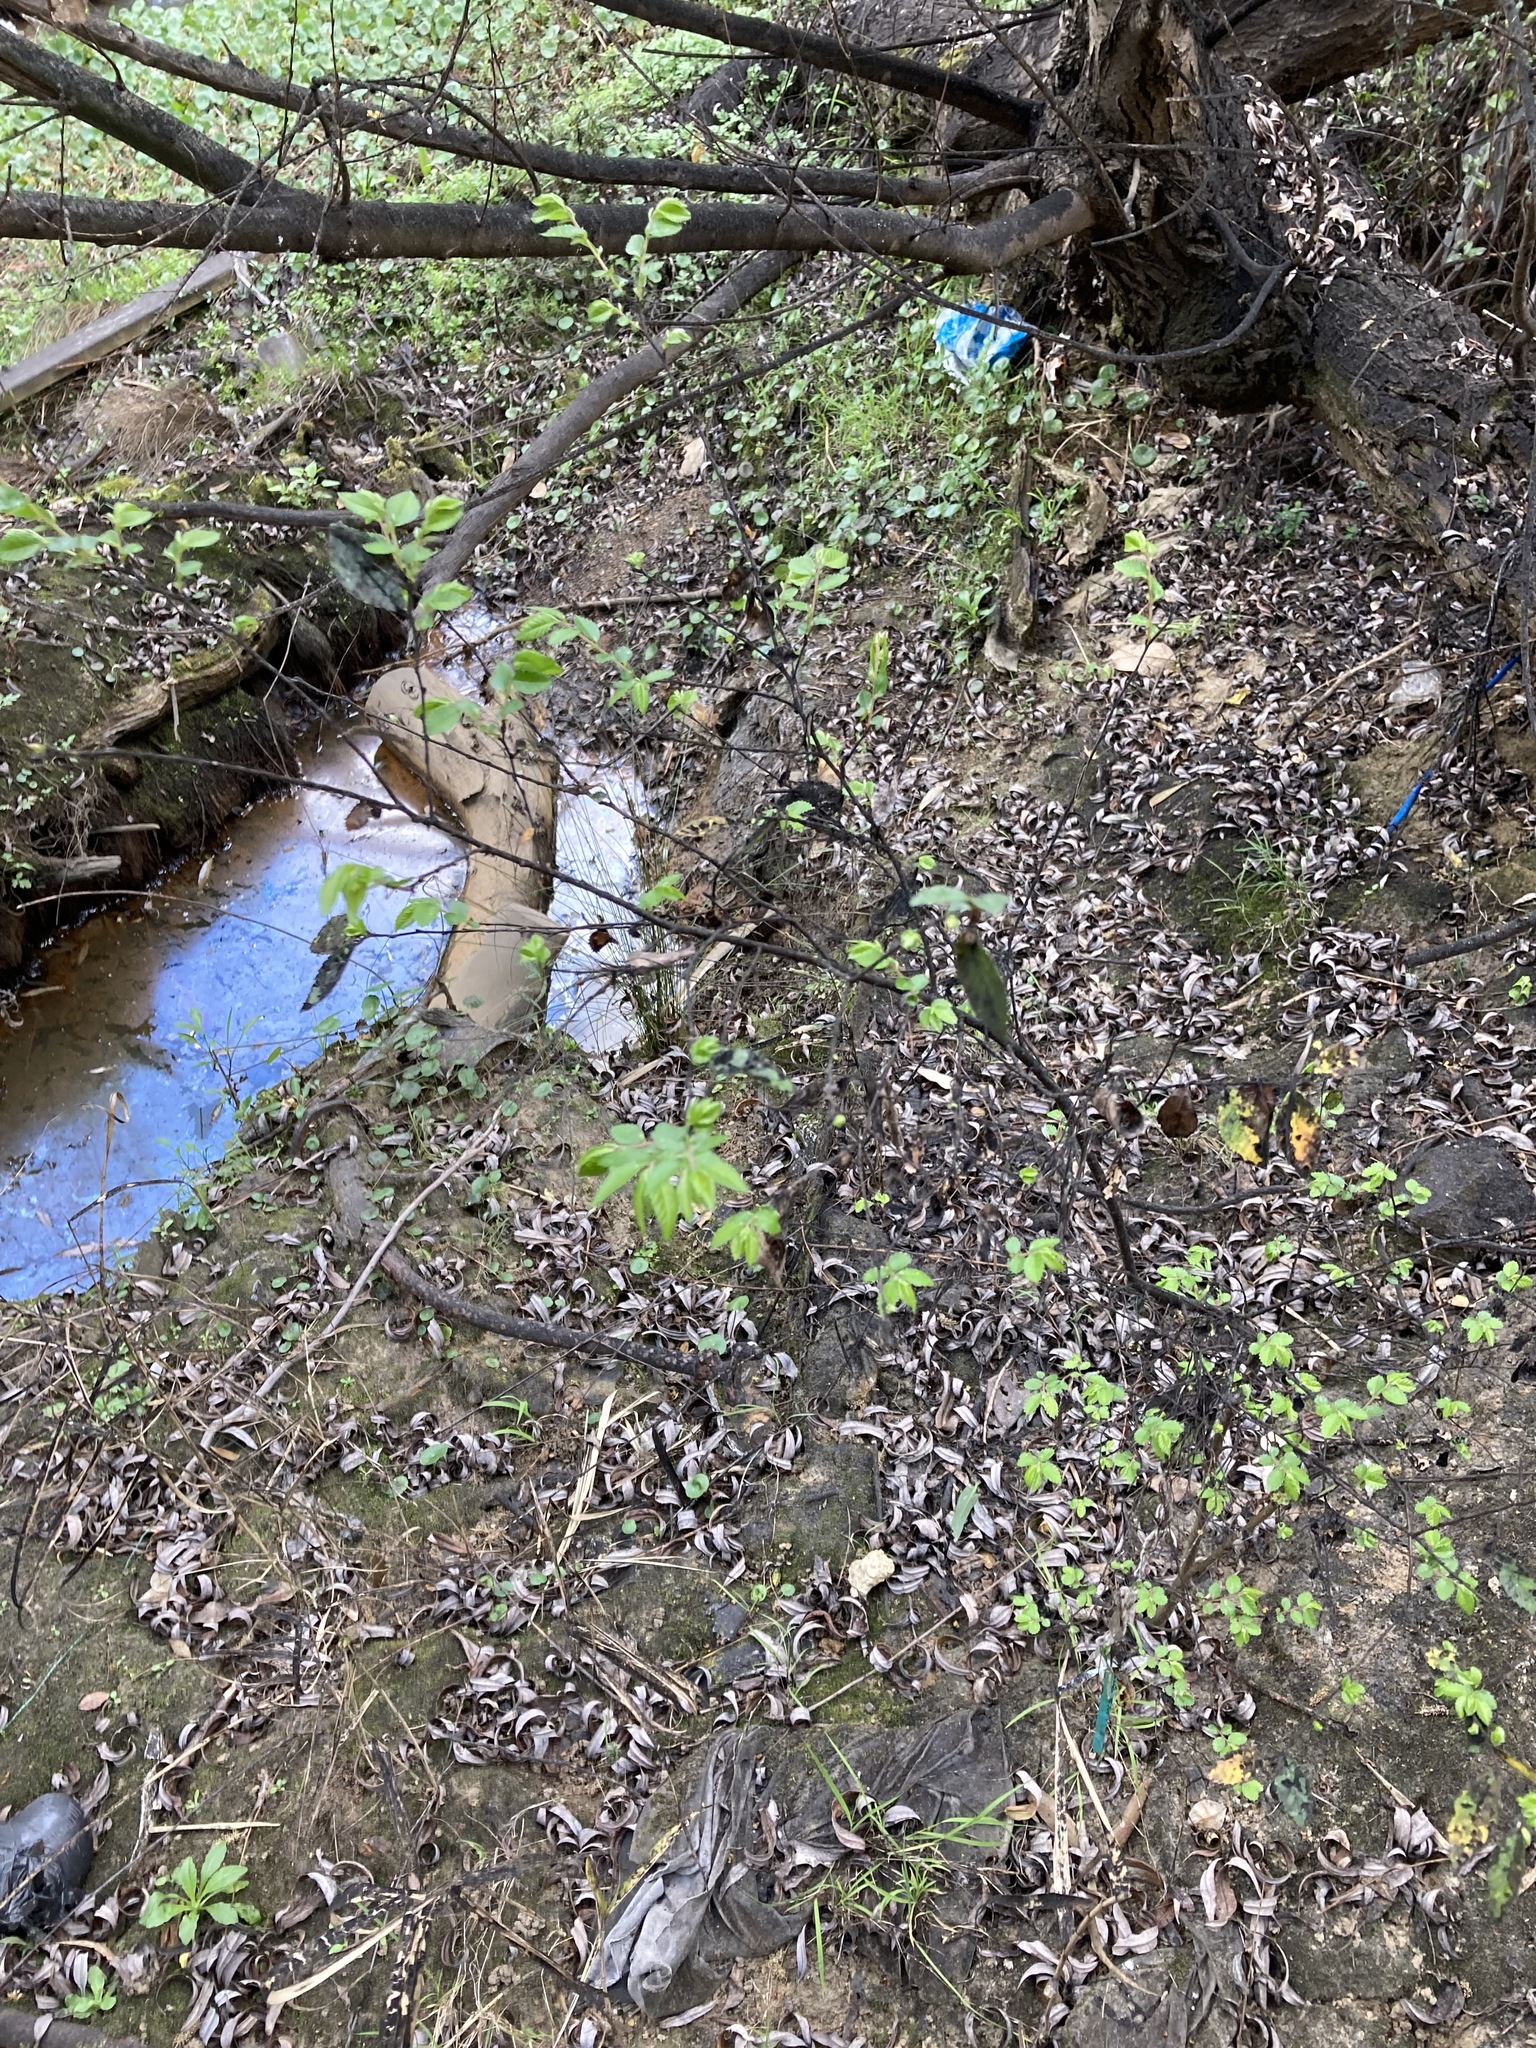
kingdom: Plantae
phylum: Tracheophyta
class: Magnoliopsida
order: Rosales
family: Ulmaceae
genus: Ulmus
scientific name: Ulmus parvifolia
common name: Chinese elm
